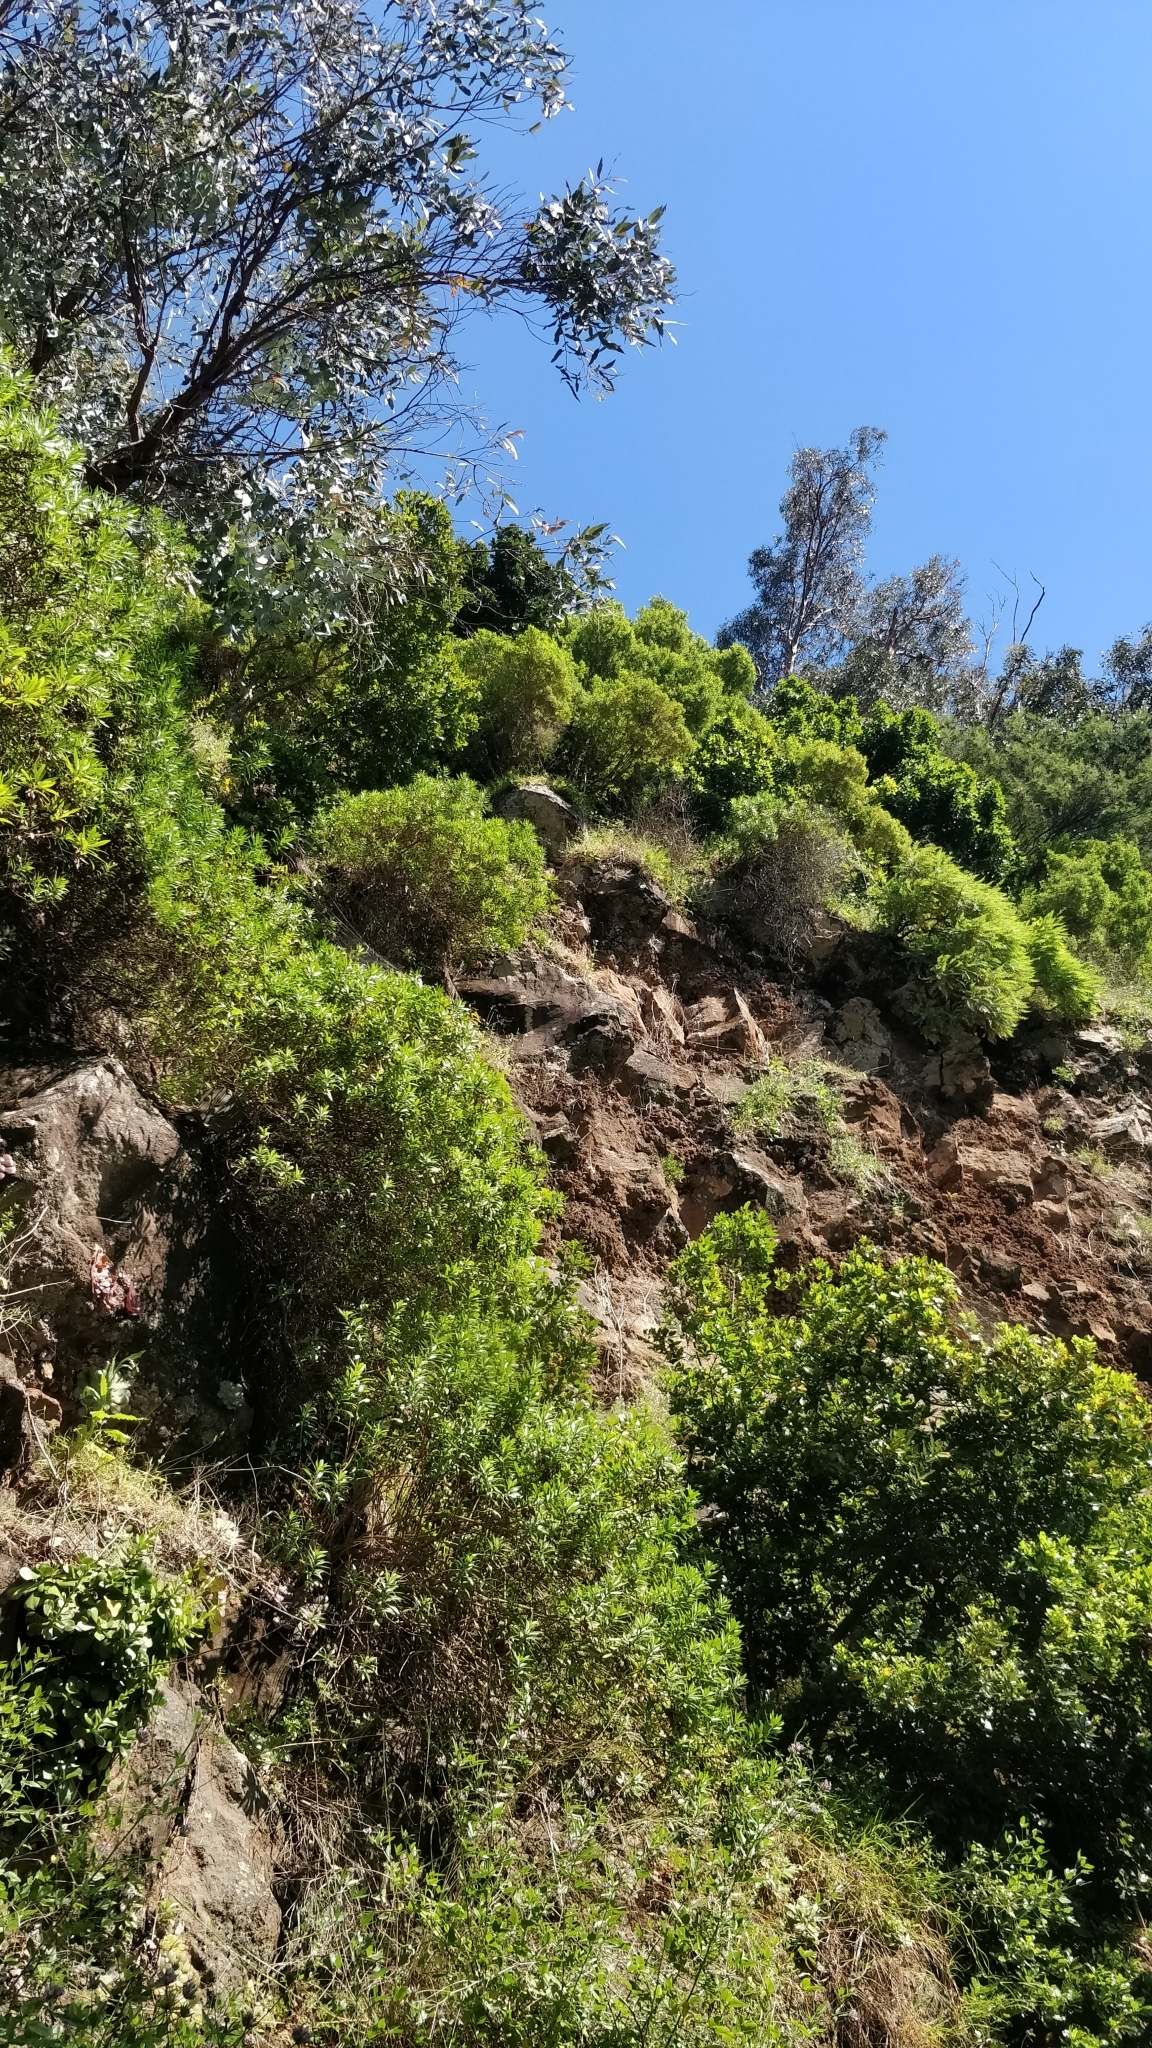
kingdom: Plantae
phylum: Tracheophyta
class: Magnoliopsida
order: Lamiales
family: Plantaginaceae
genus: Globularia
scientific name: Globularia salicina
